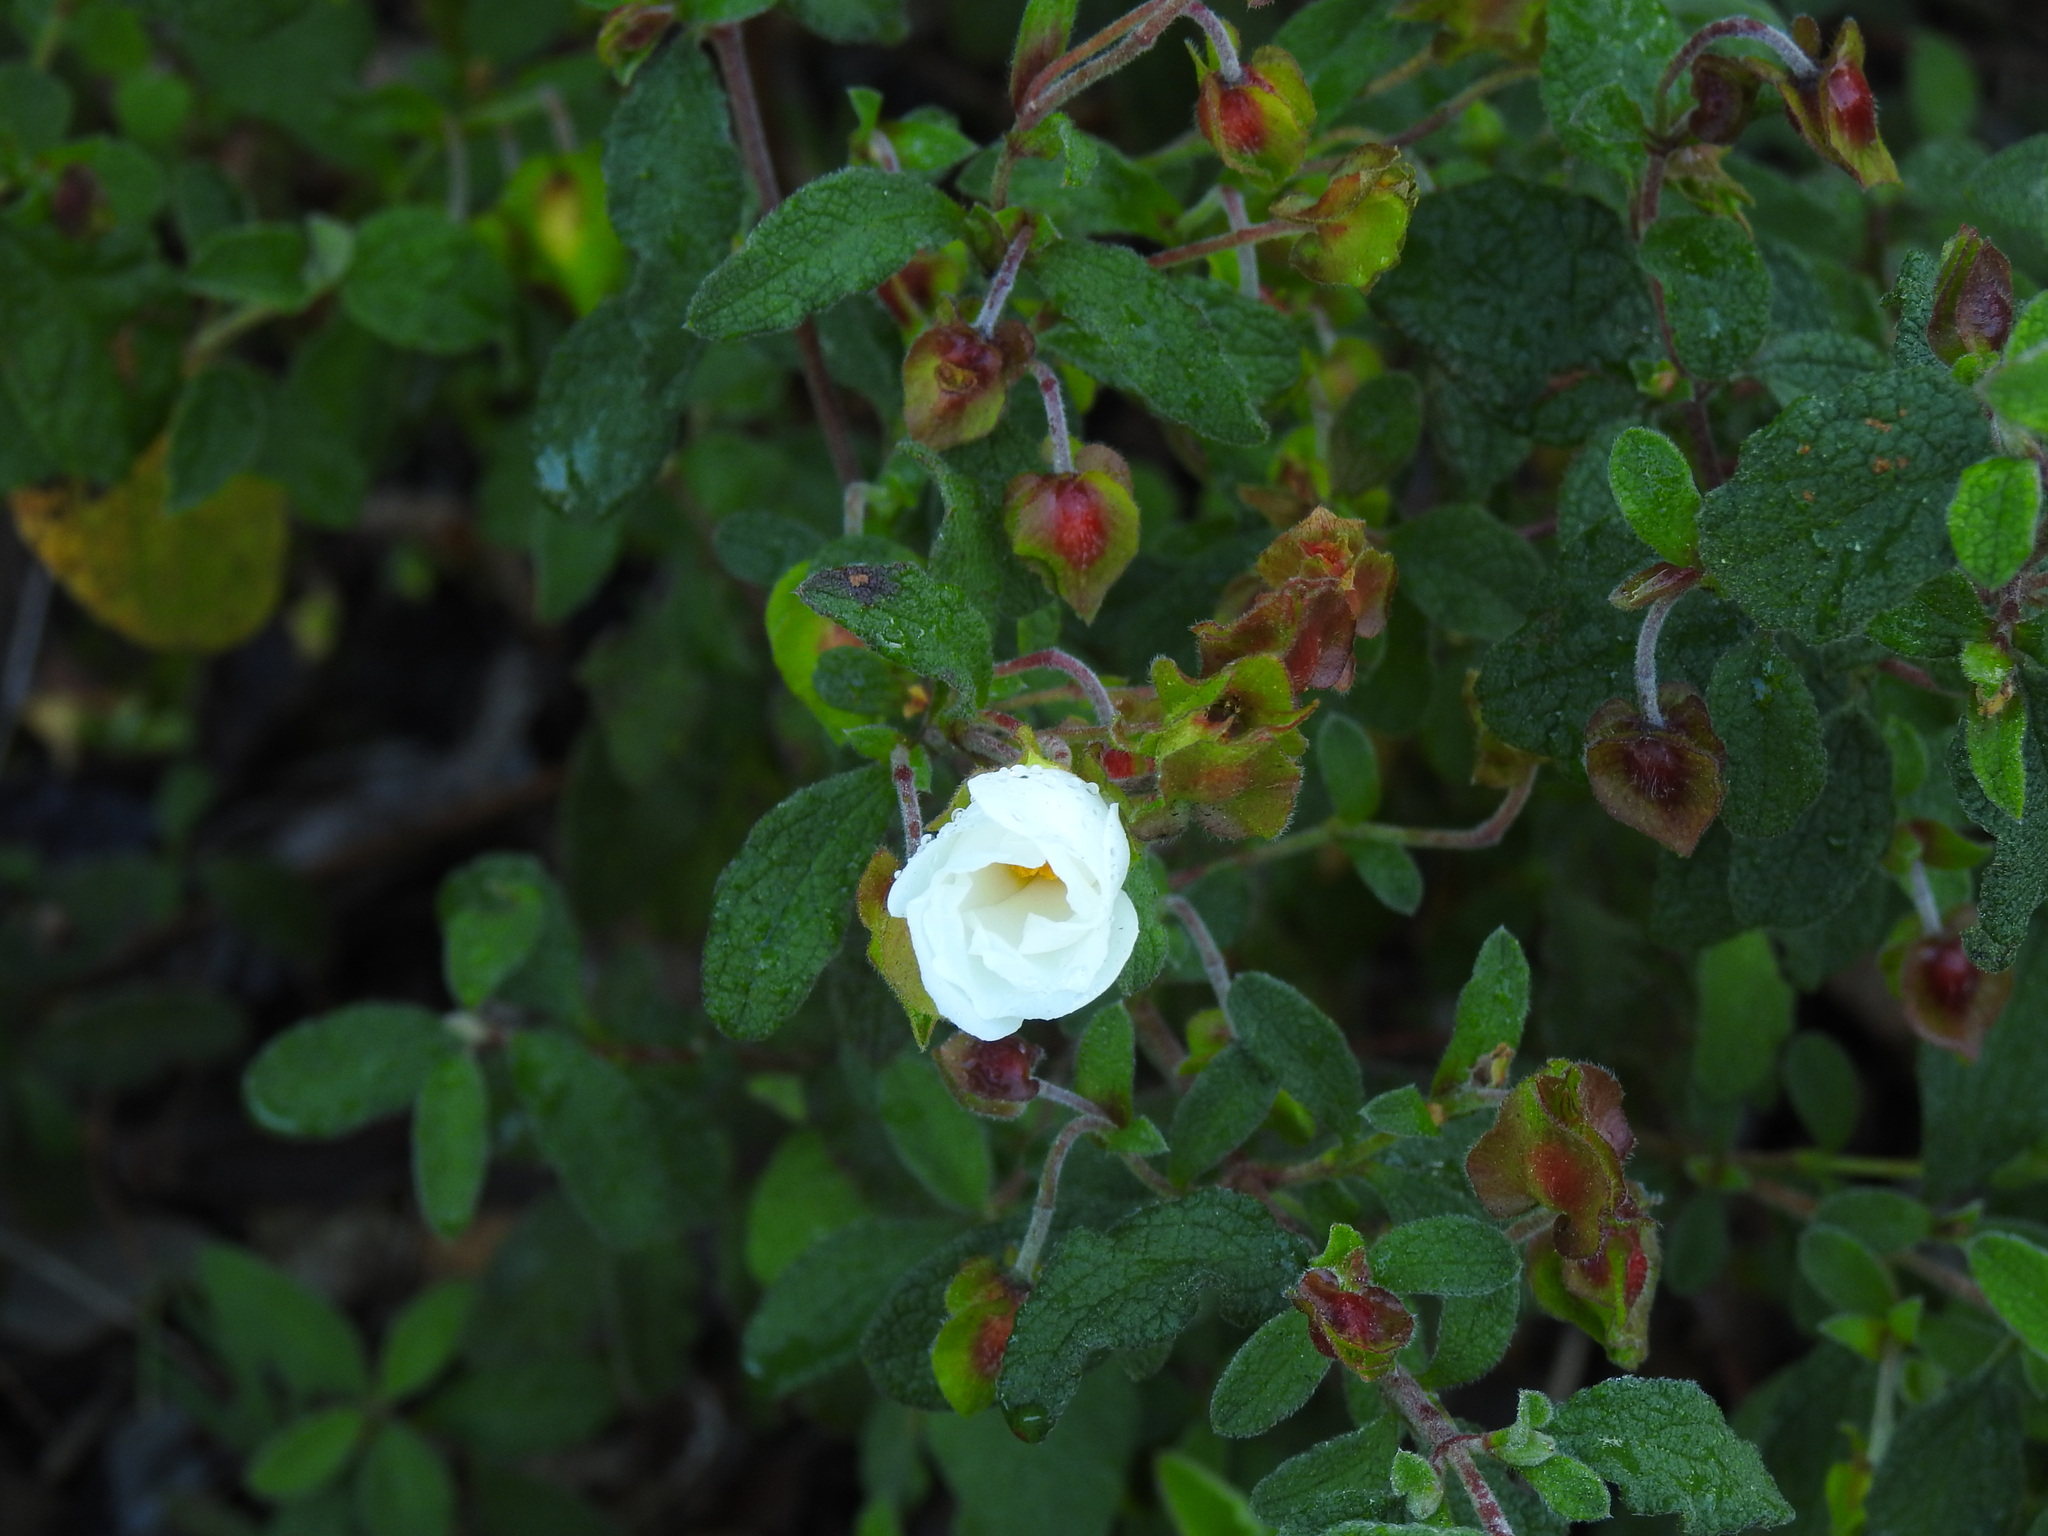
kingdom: Plantae
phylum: Tracheophyta
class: Magnoliopsida
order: Malvales
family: Cistaceae
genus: Cistus
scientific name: Cistus salviifolius
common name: Salvia cistus
